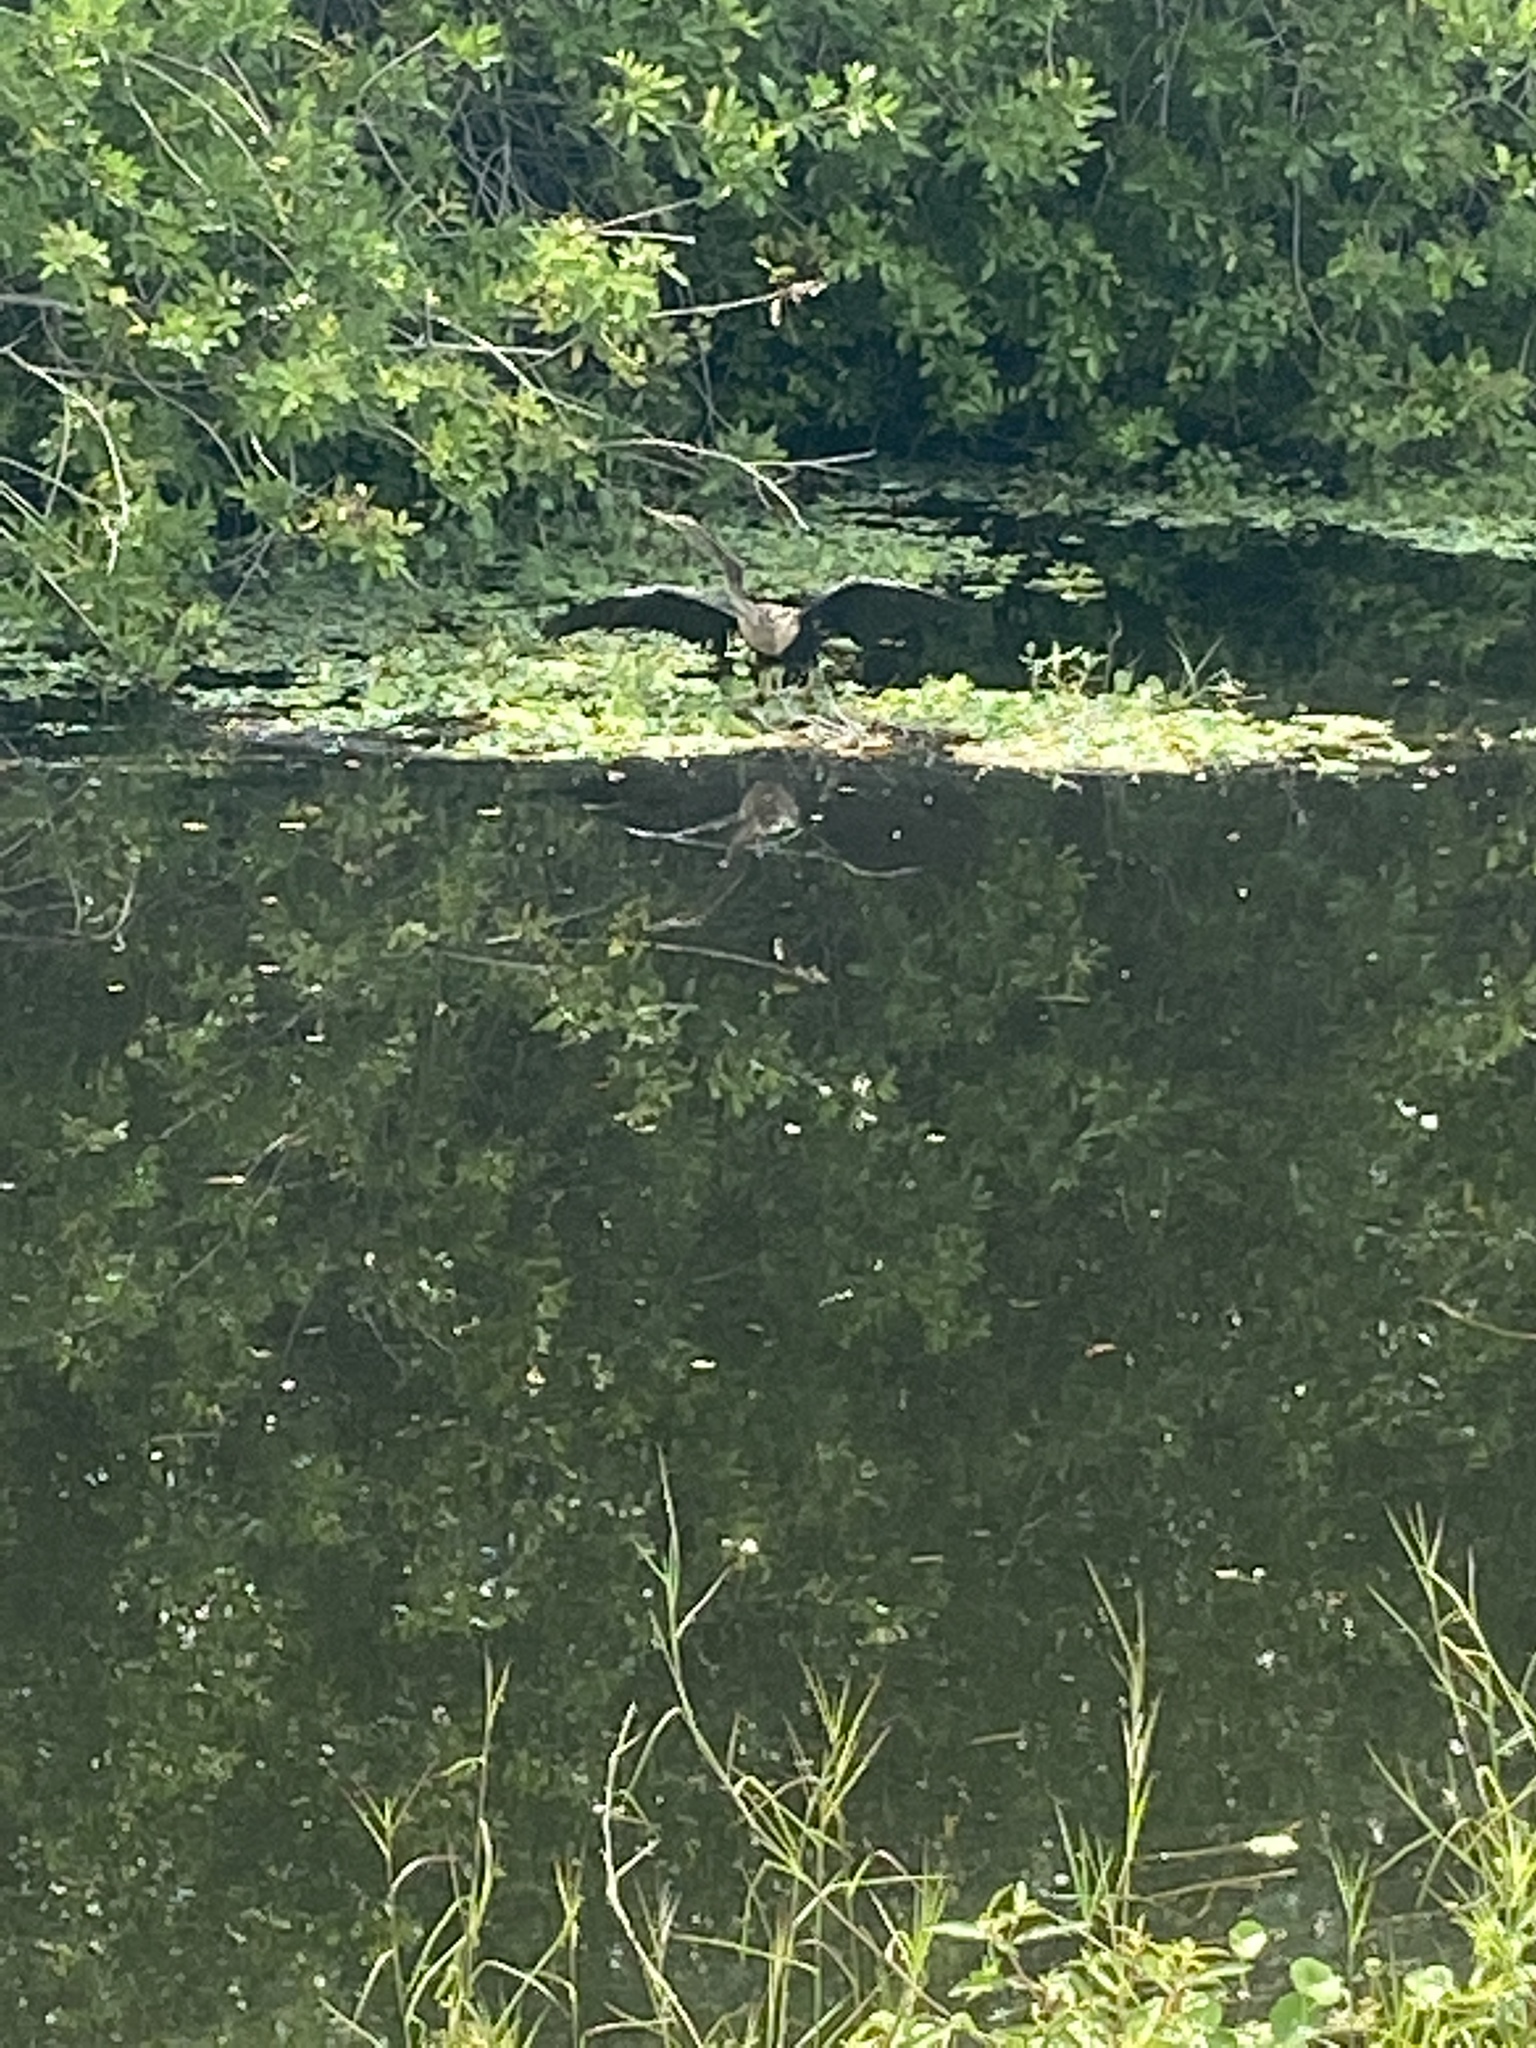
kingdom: Animalia
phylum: Chordata
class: Aves
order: Suliformes
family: Anhingidae
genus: Anhinga
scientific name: Anhinga anhinga
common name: Anhinga
